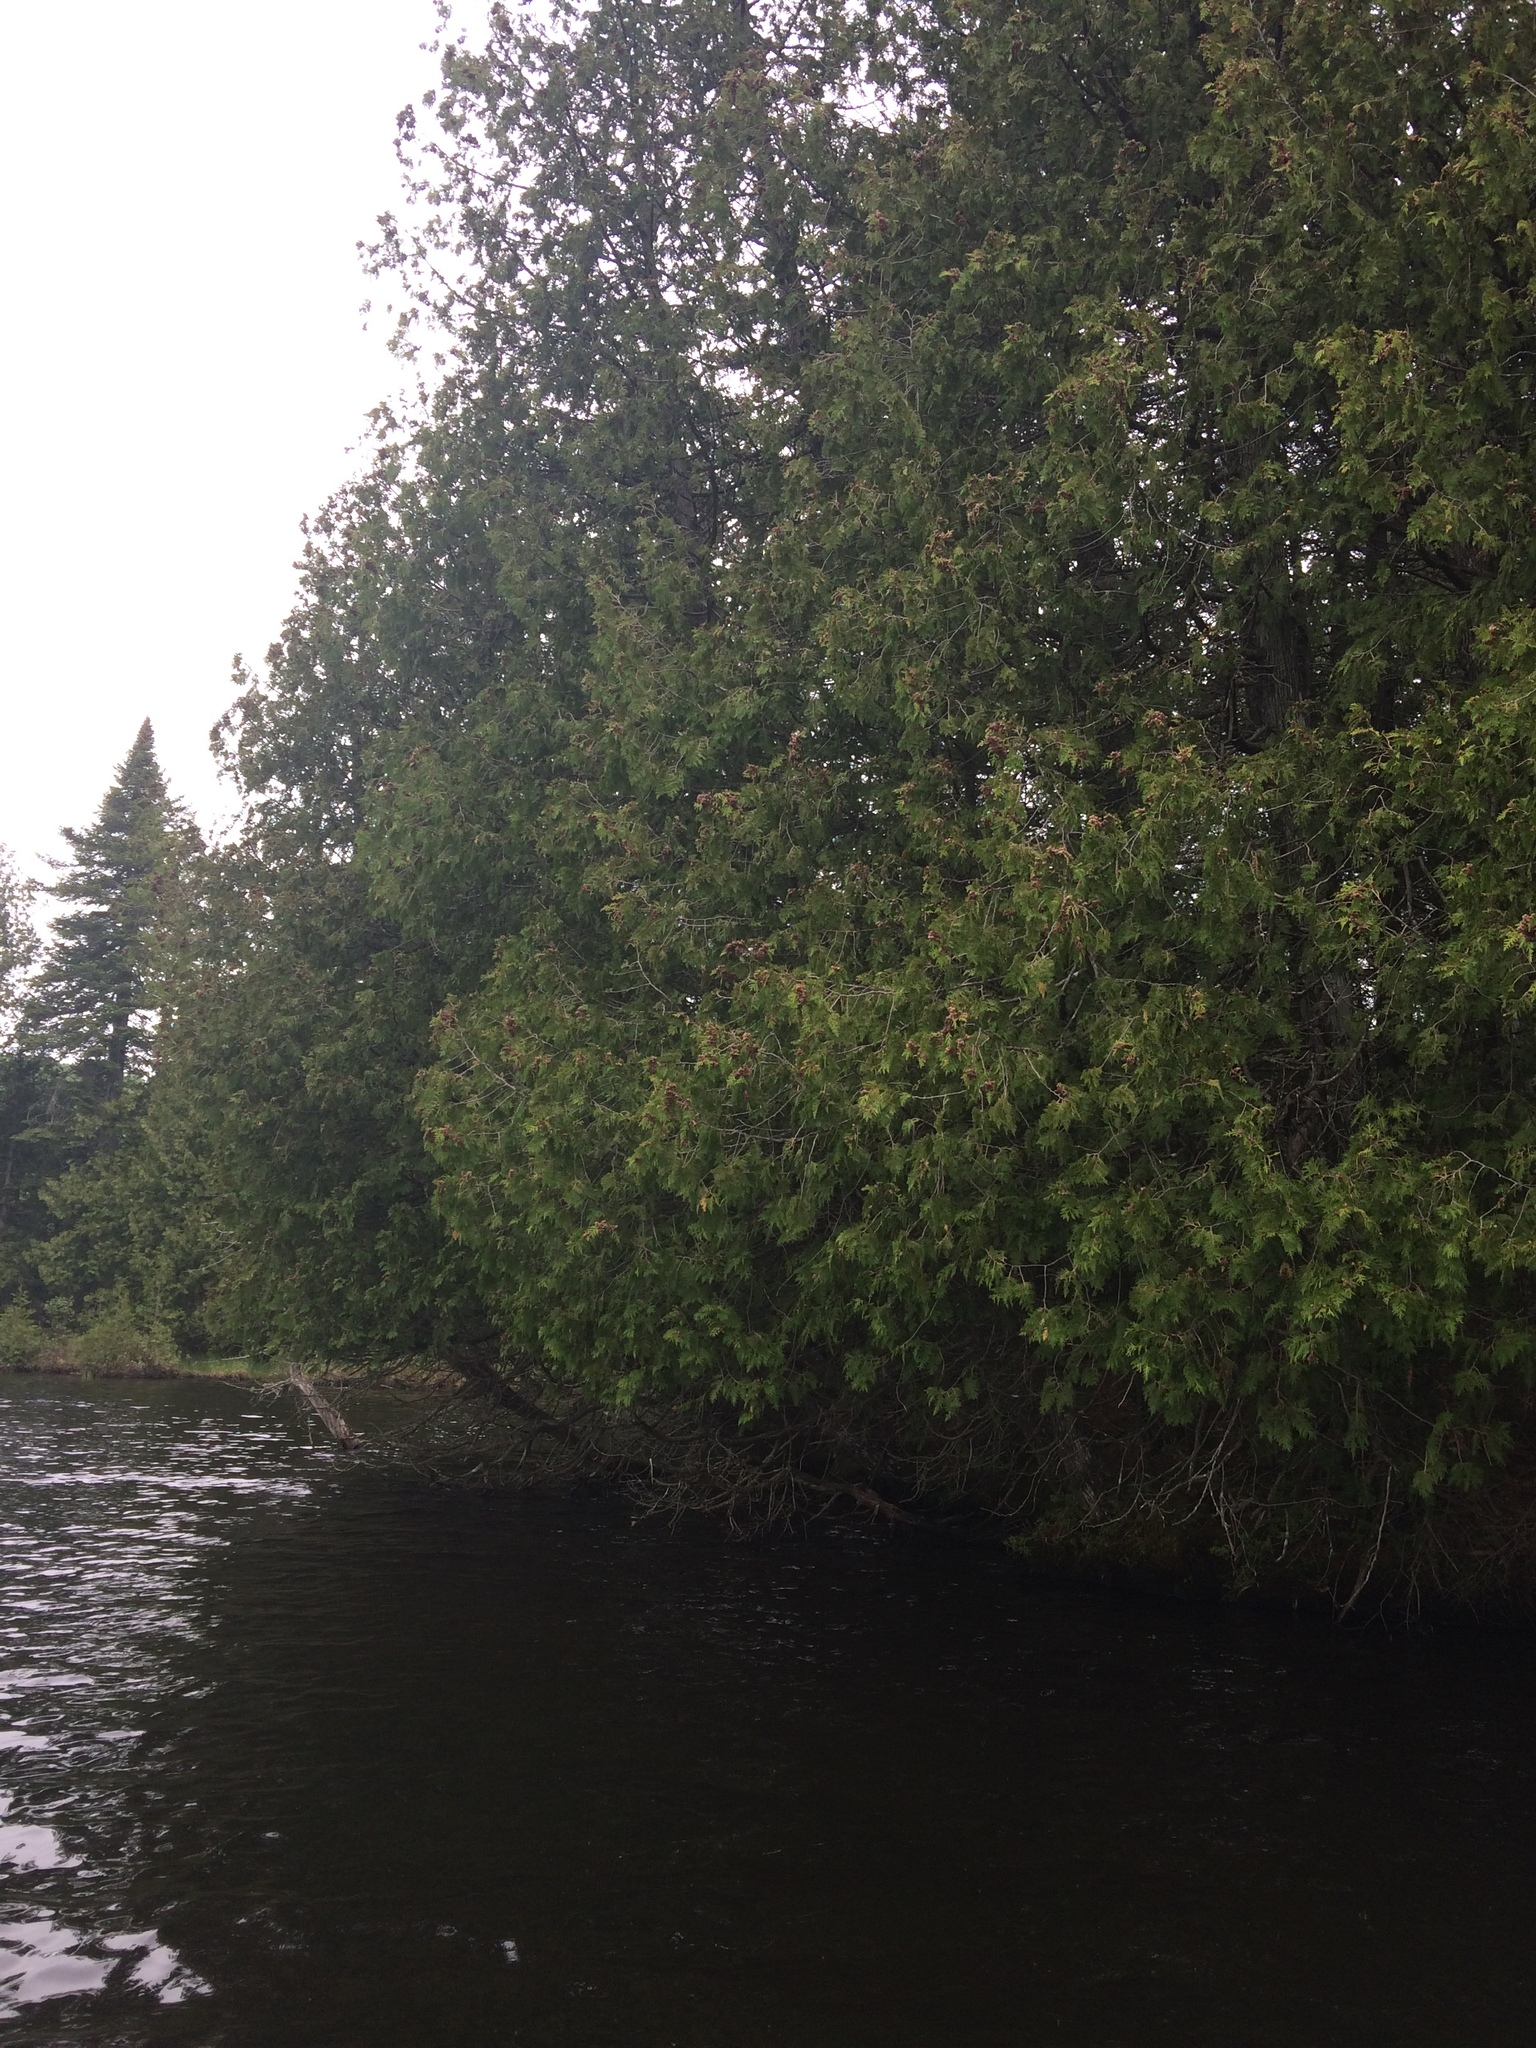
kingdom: Plantae
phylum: Tracheophyta
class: Pinopsida
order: Pinales
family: Cupressaceae
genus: Thuja
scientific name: Thuja occidentalis
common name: Northern white-cedar
